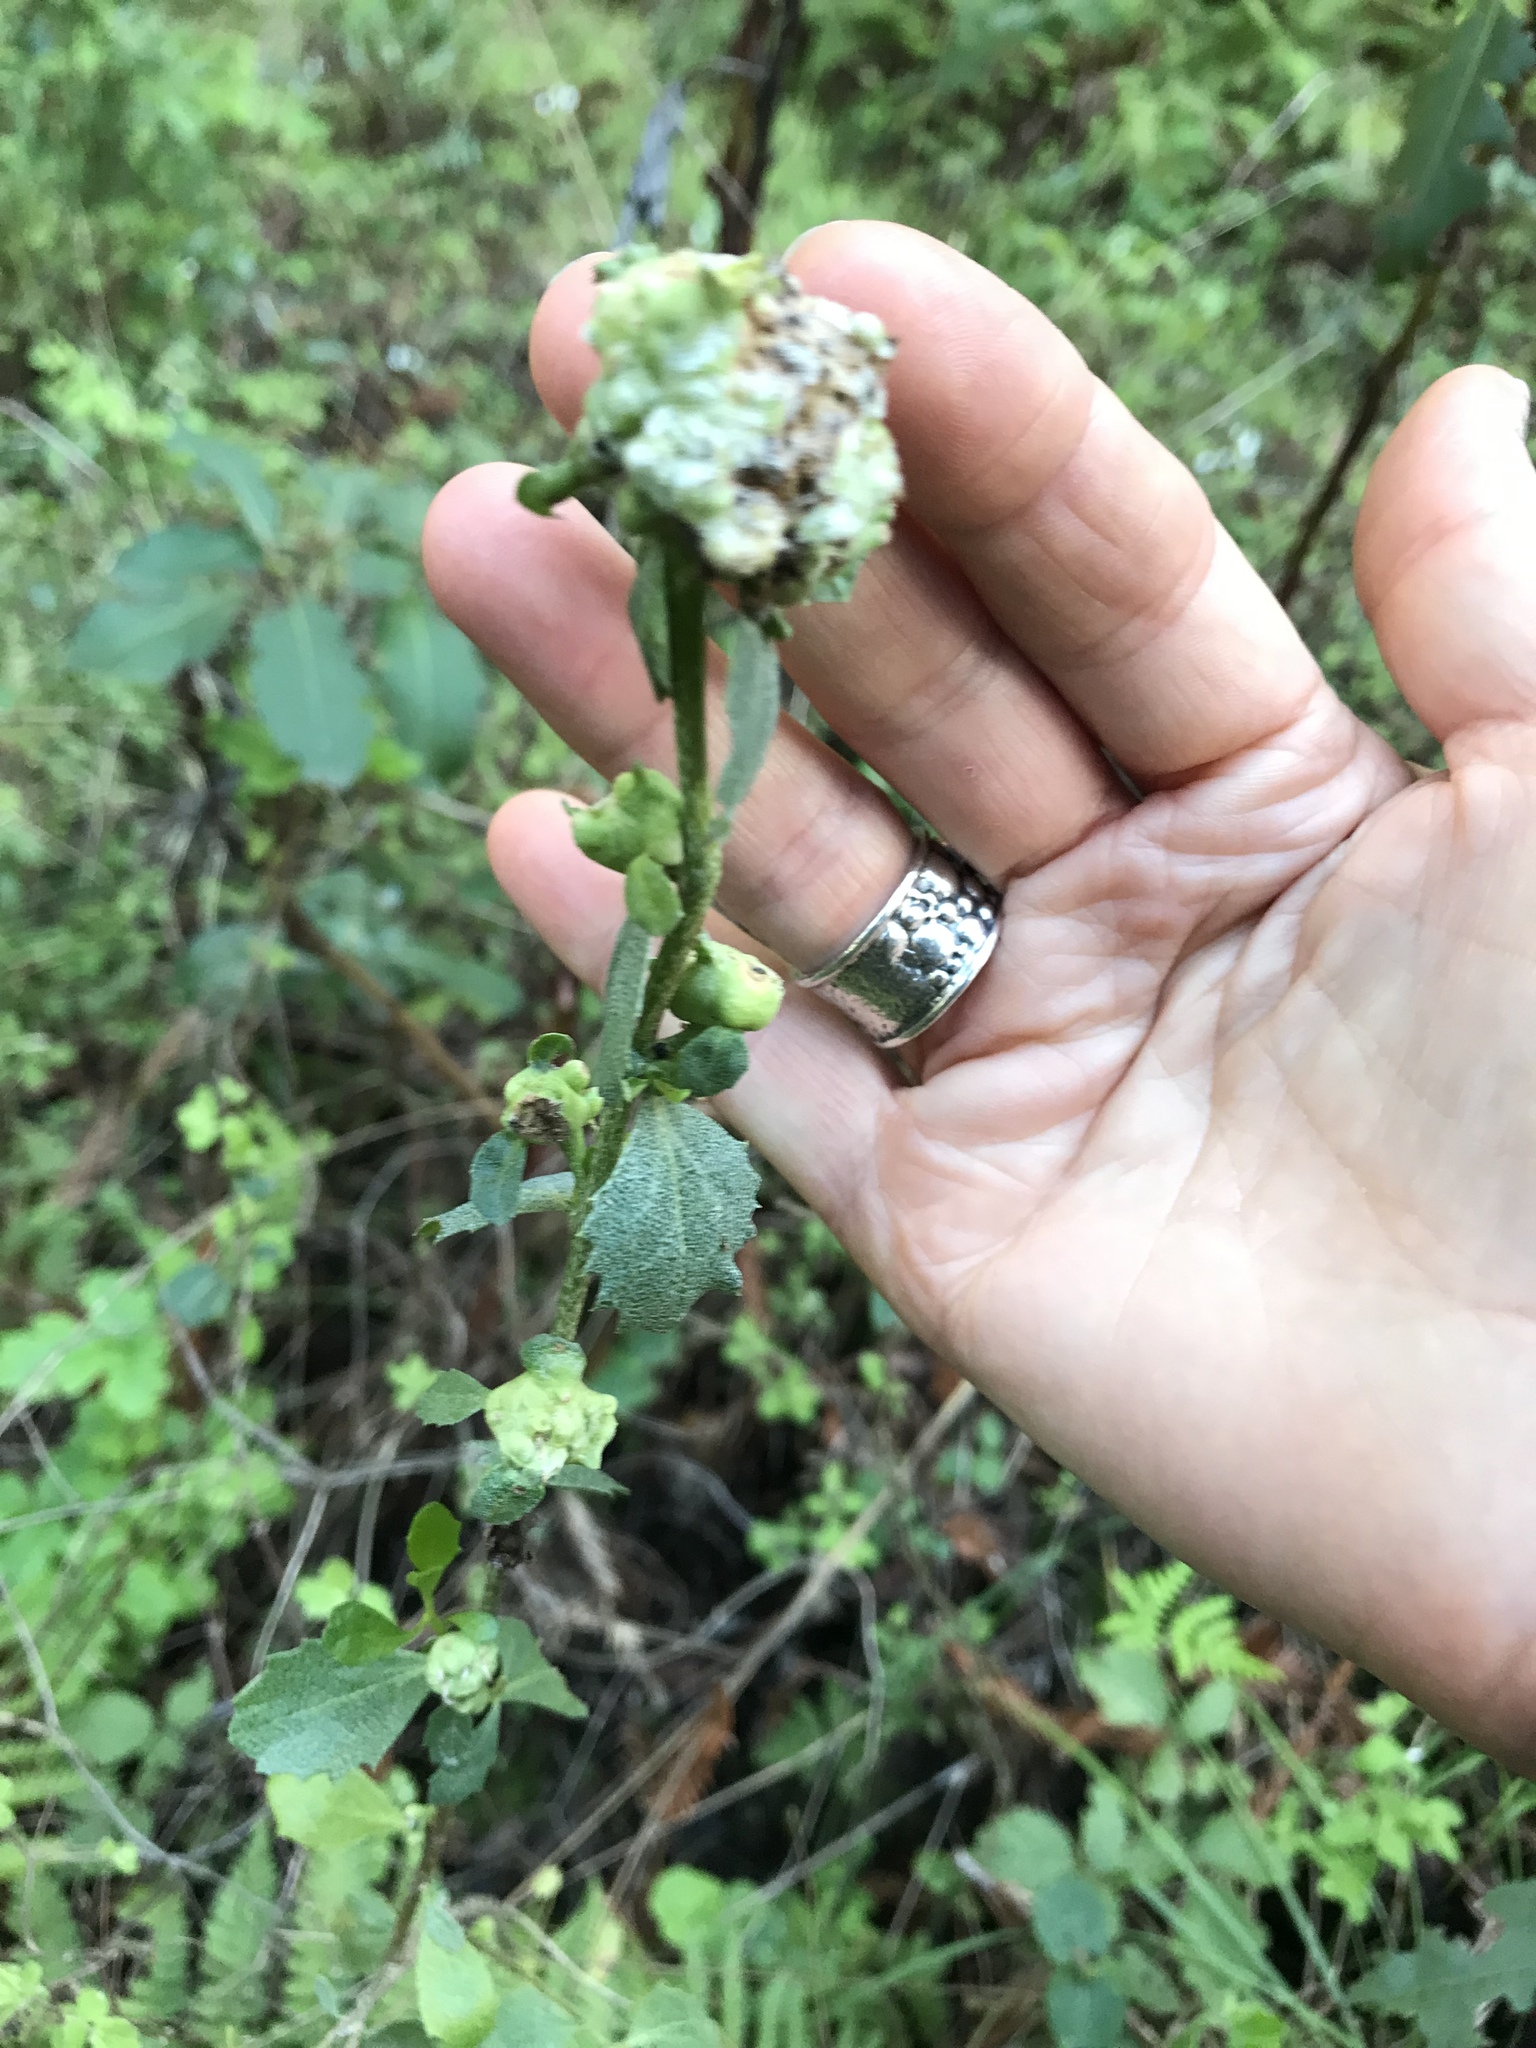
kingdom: Plantae
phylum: Tracheophyta
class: Magnoliopsida
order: Asterales
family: Asteraceae
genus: Baccharis
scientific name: Baccharis pilularis
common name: Coyotebrush
